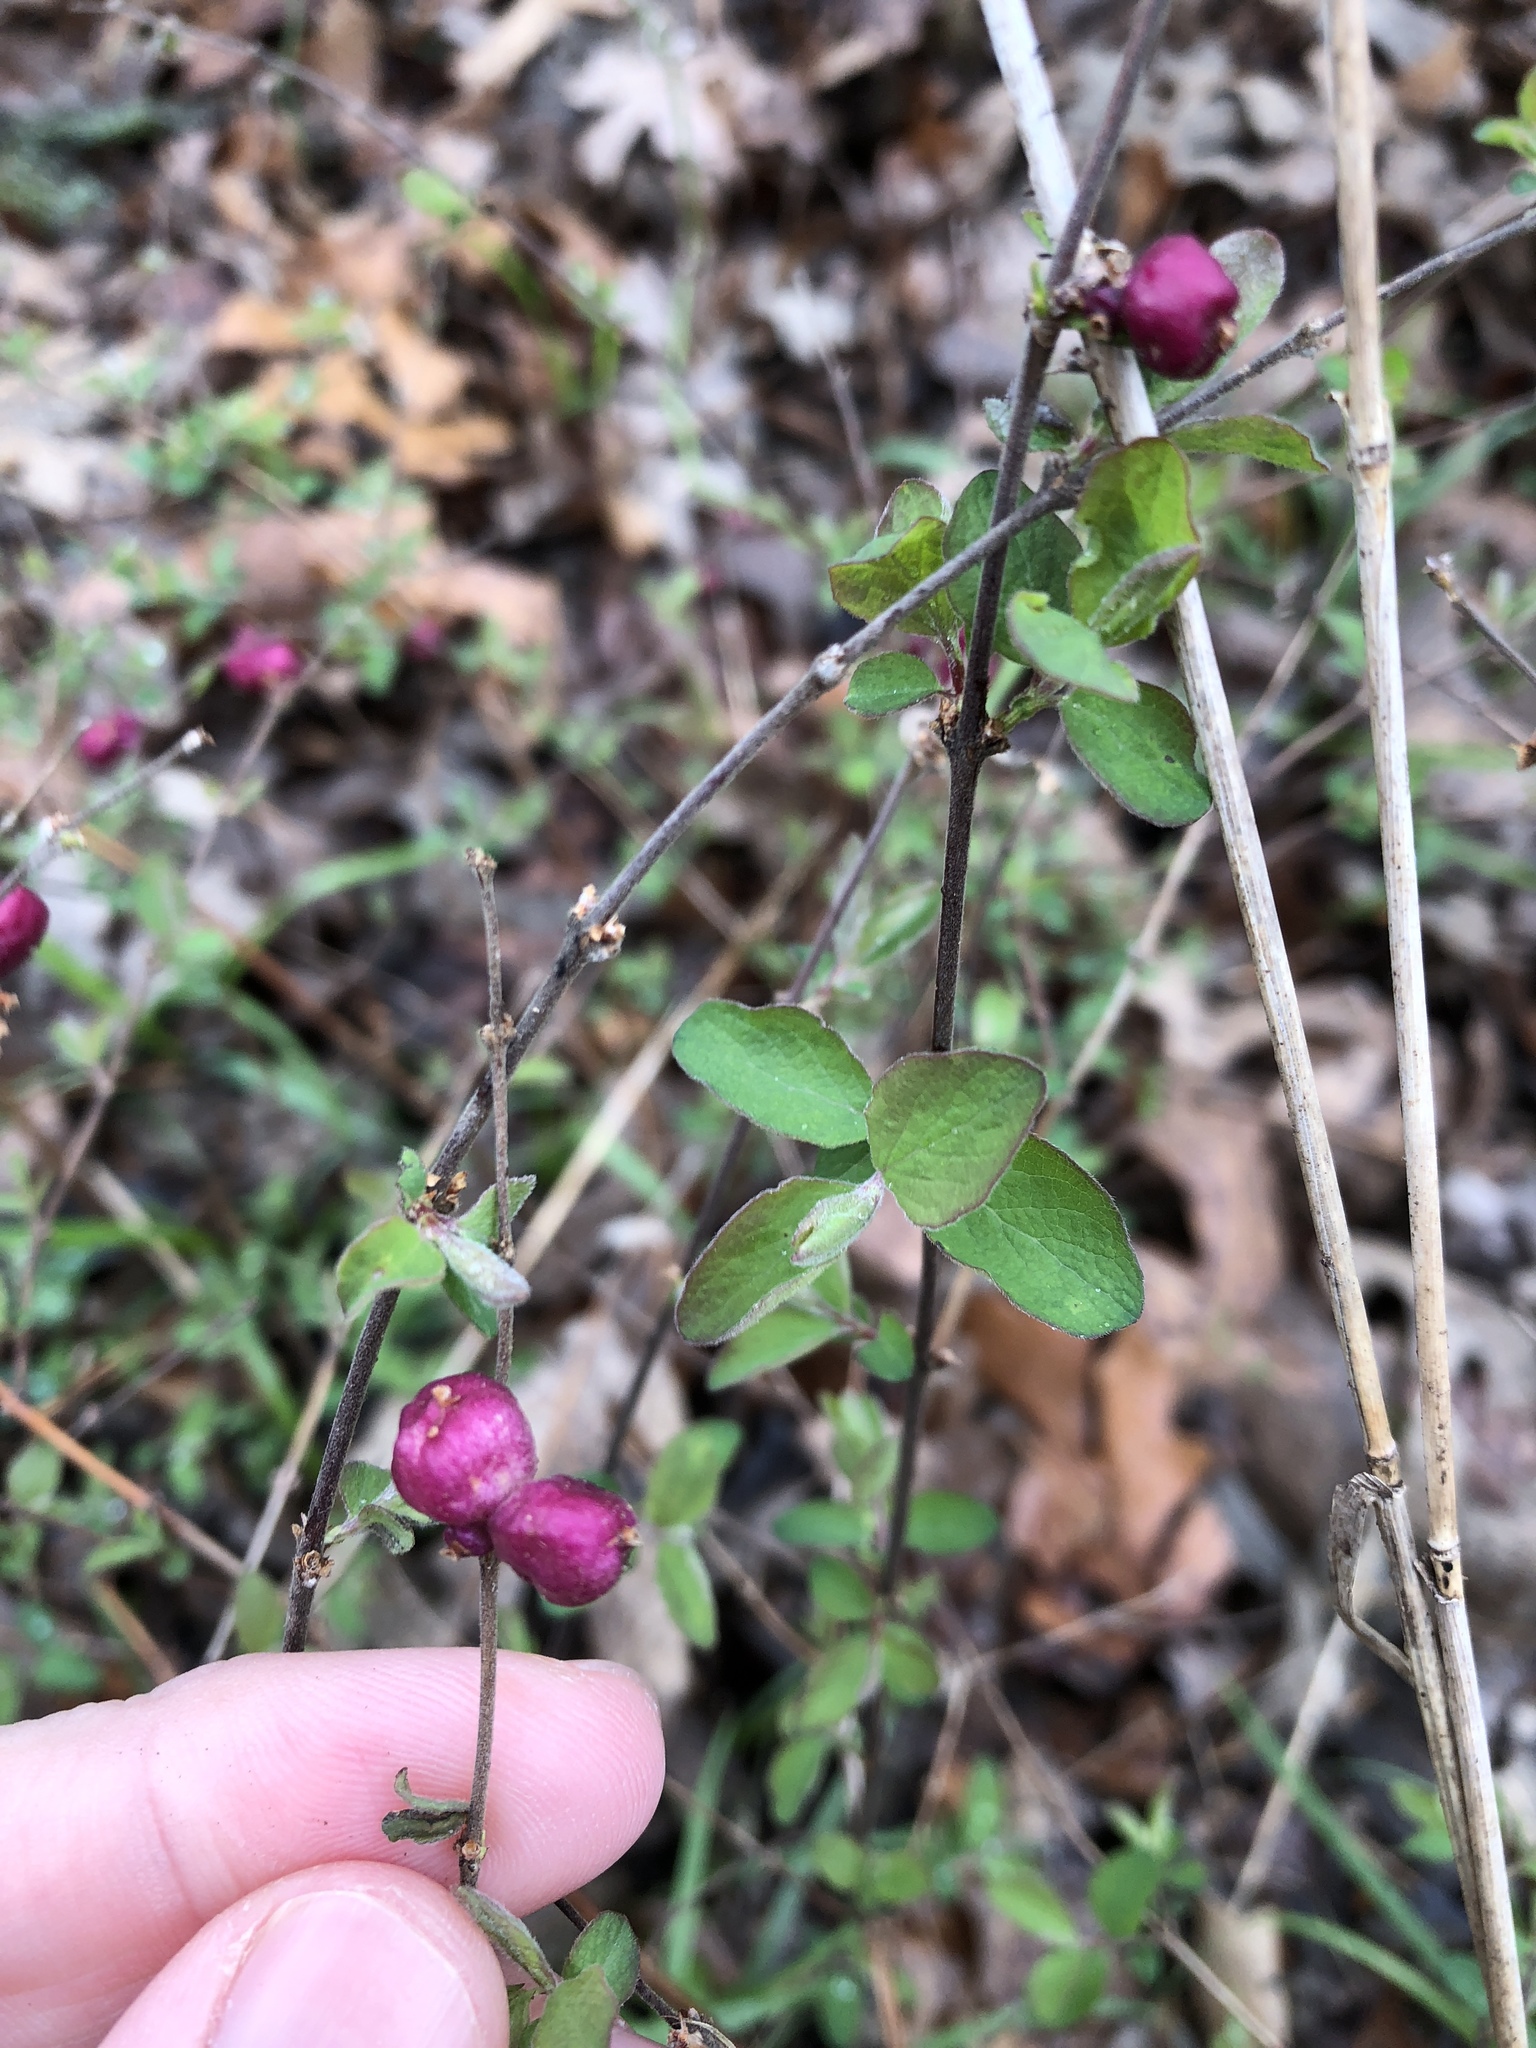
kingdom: Plantae
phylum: Tracheophyta
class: Magnoliopsida
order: Dipsacales
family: Caprifoliaceae
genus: Symphoricarpos
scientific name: Symphoricarpos orbiculatus
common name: Coralberry
